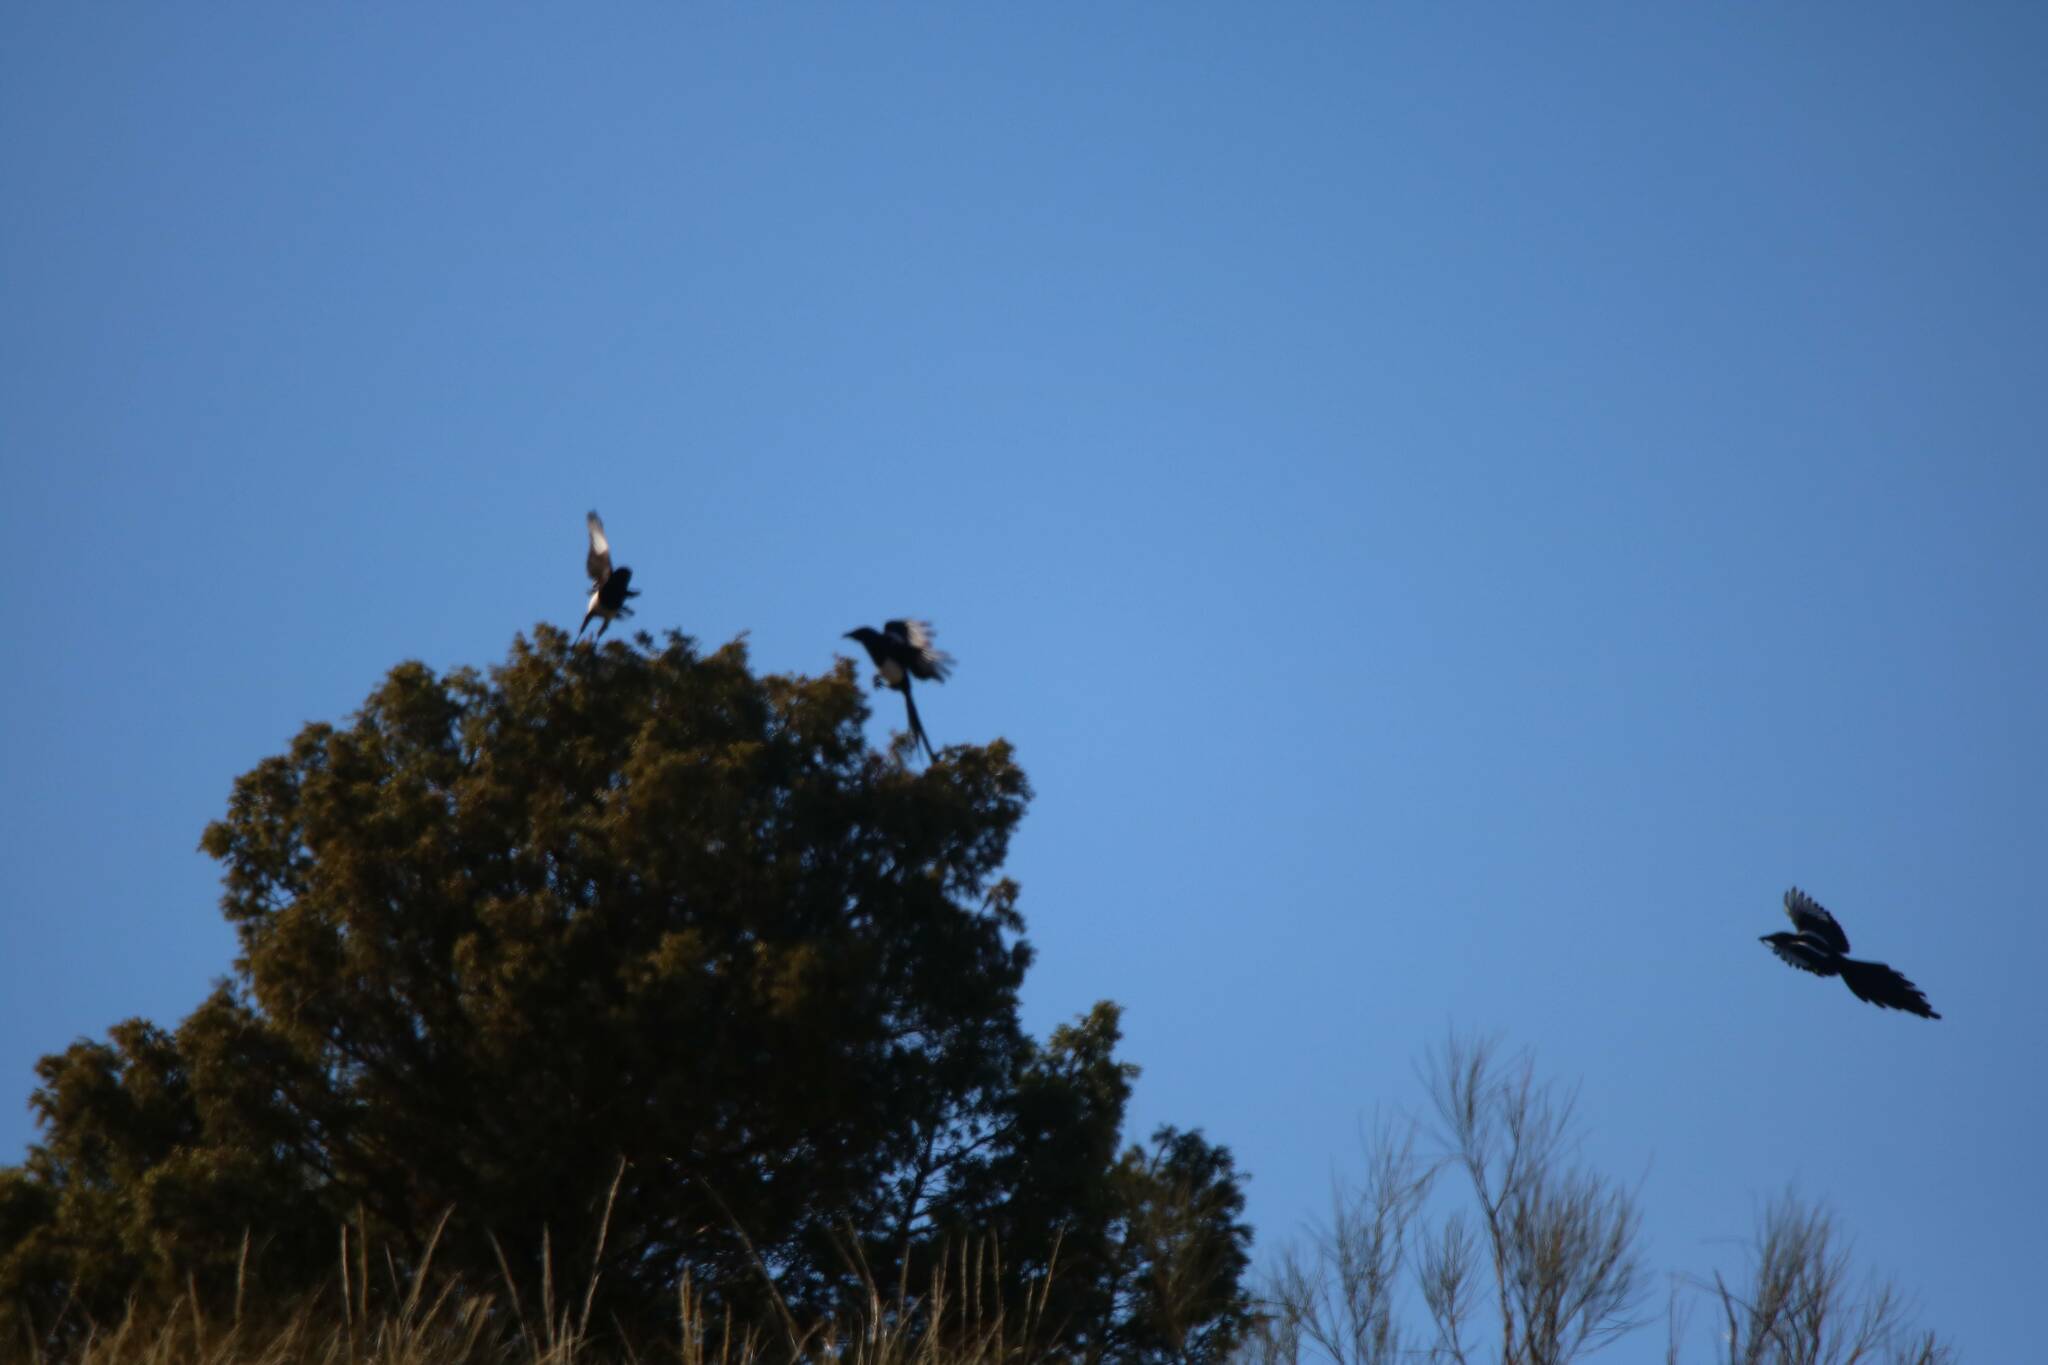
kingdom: Animalia
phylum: Chordata
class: Aves
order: Passeriformes
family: Corvidae
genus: Pica
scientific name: Pica mauritanica
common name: Maghreb magpie
